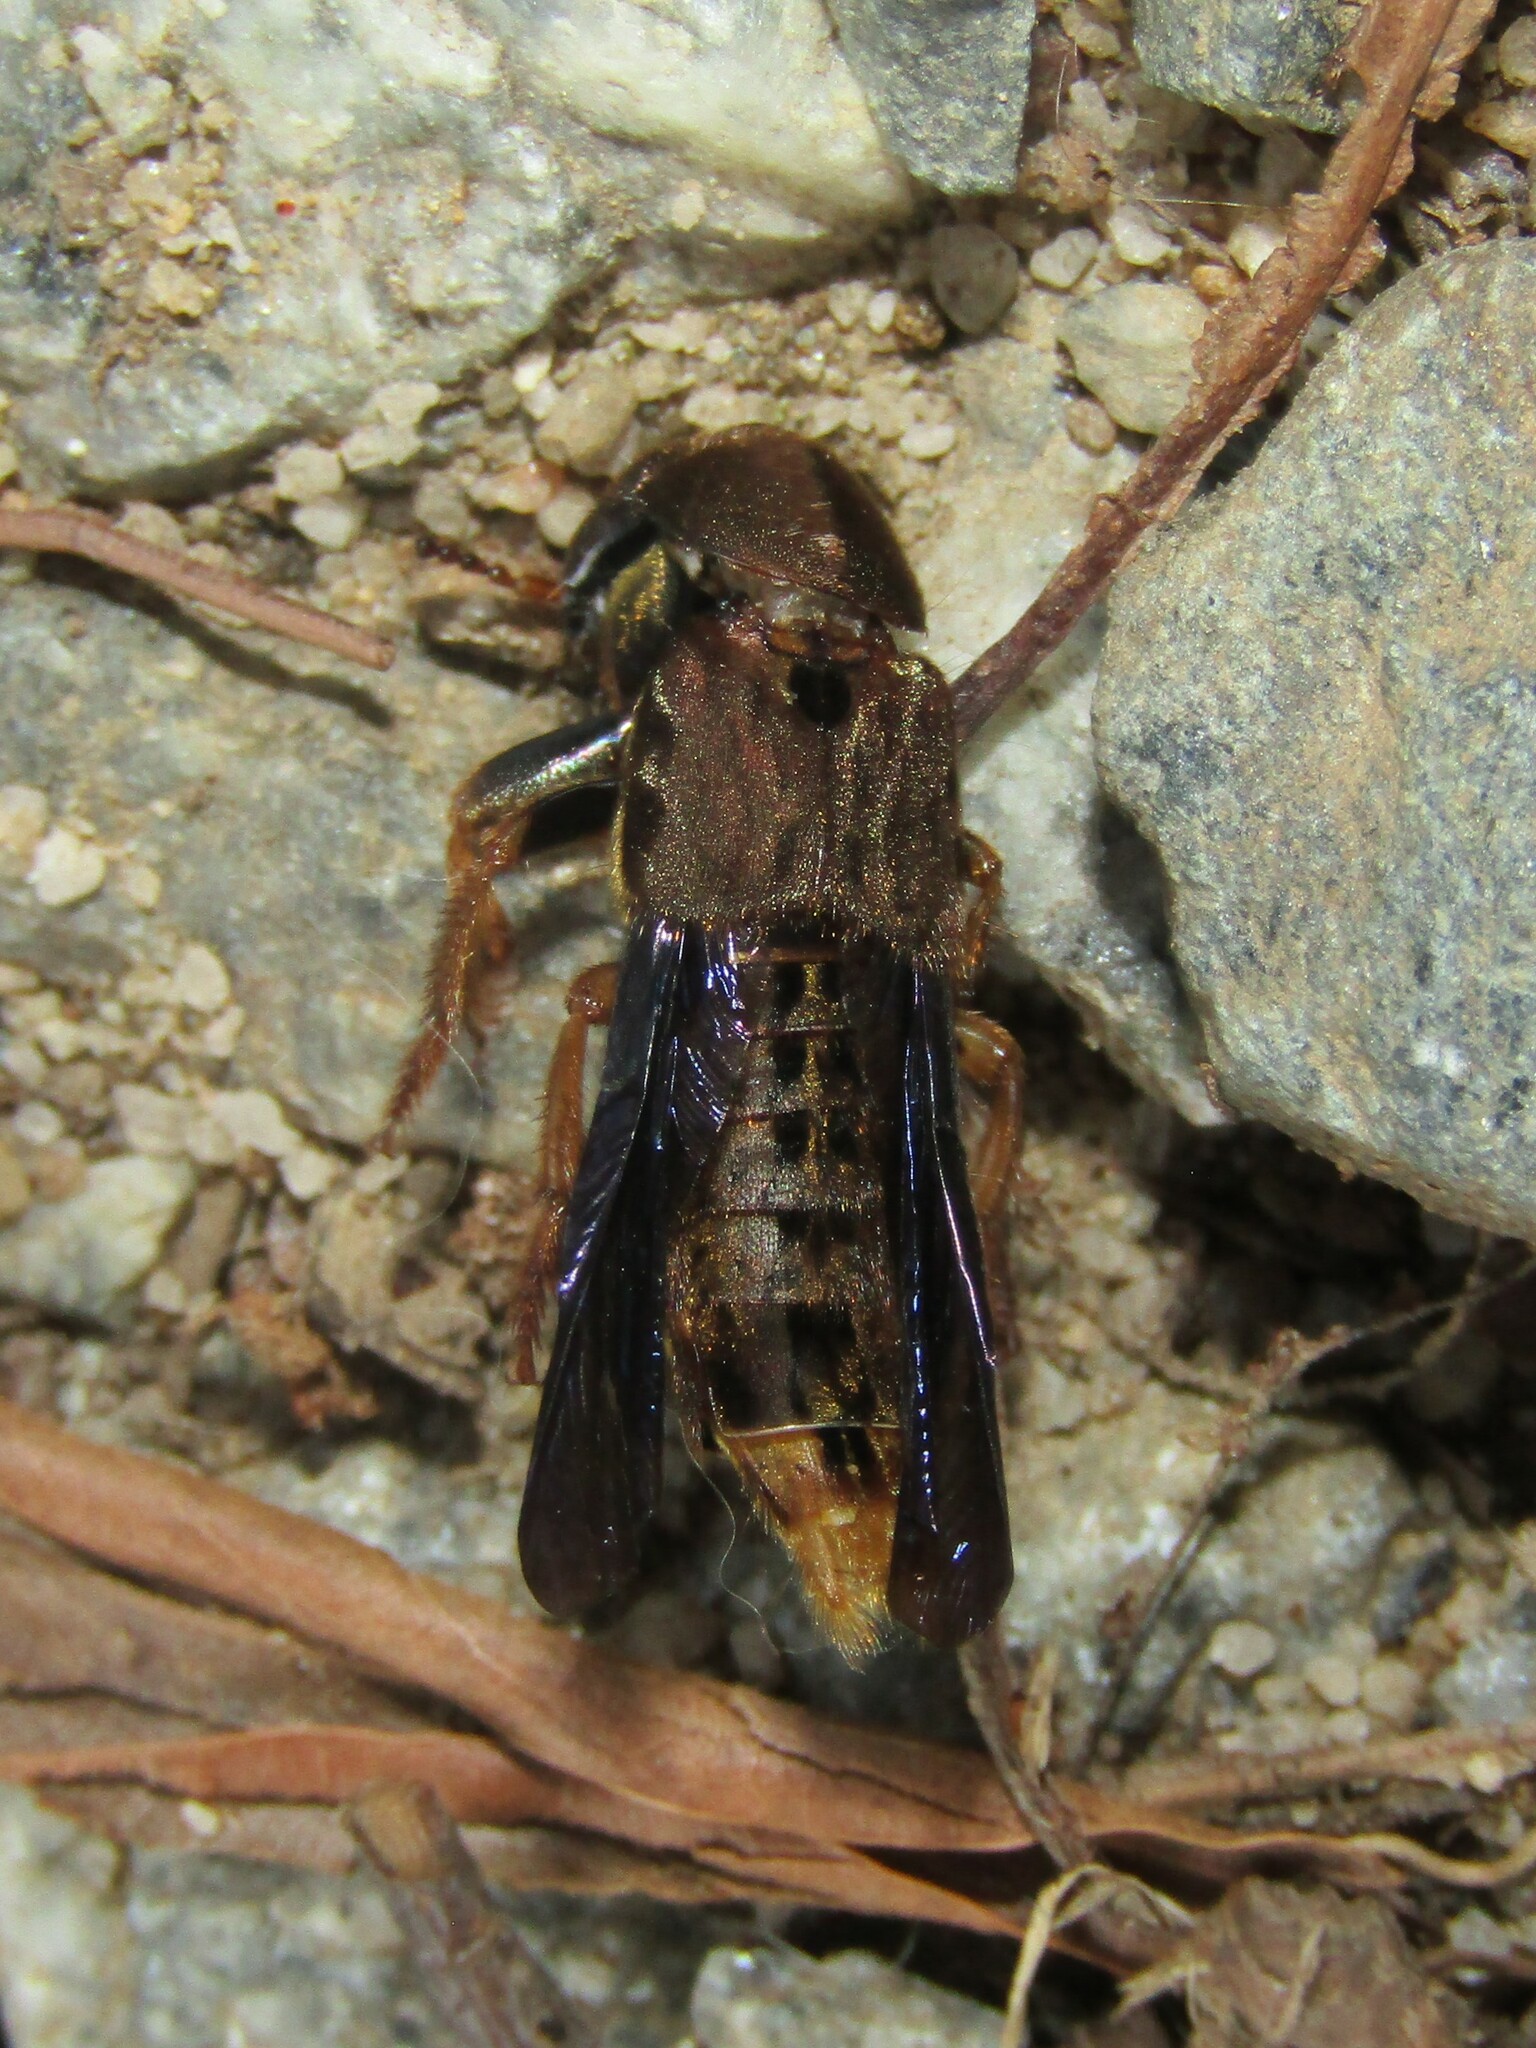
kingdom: Animalia
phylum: Arthropoda
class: Insecta
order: Coleoptera
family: Staphylinidae
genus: Platydracus
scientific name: Platydracus maculosus
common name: Brown rove beetle
